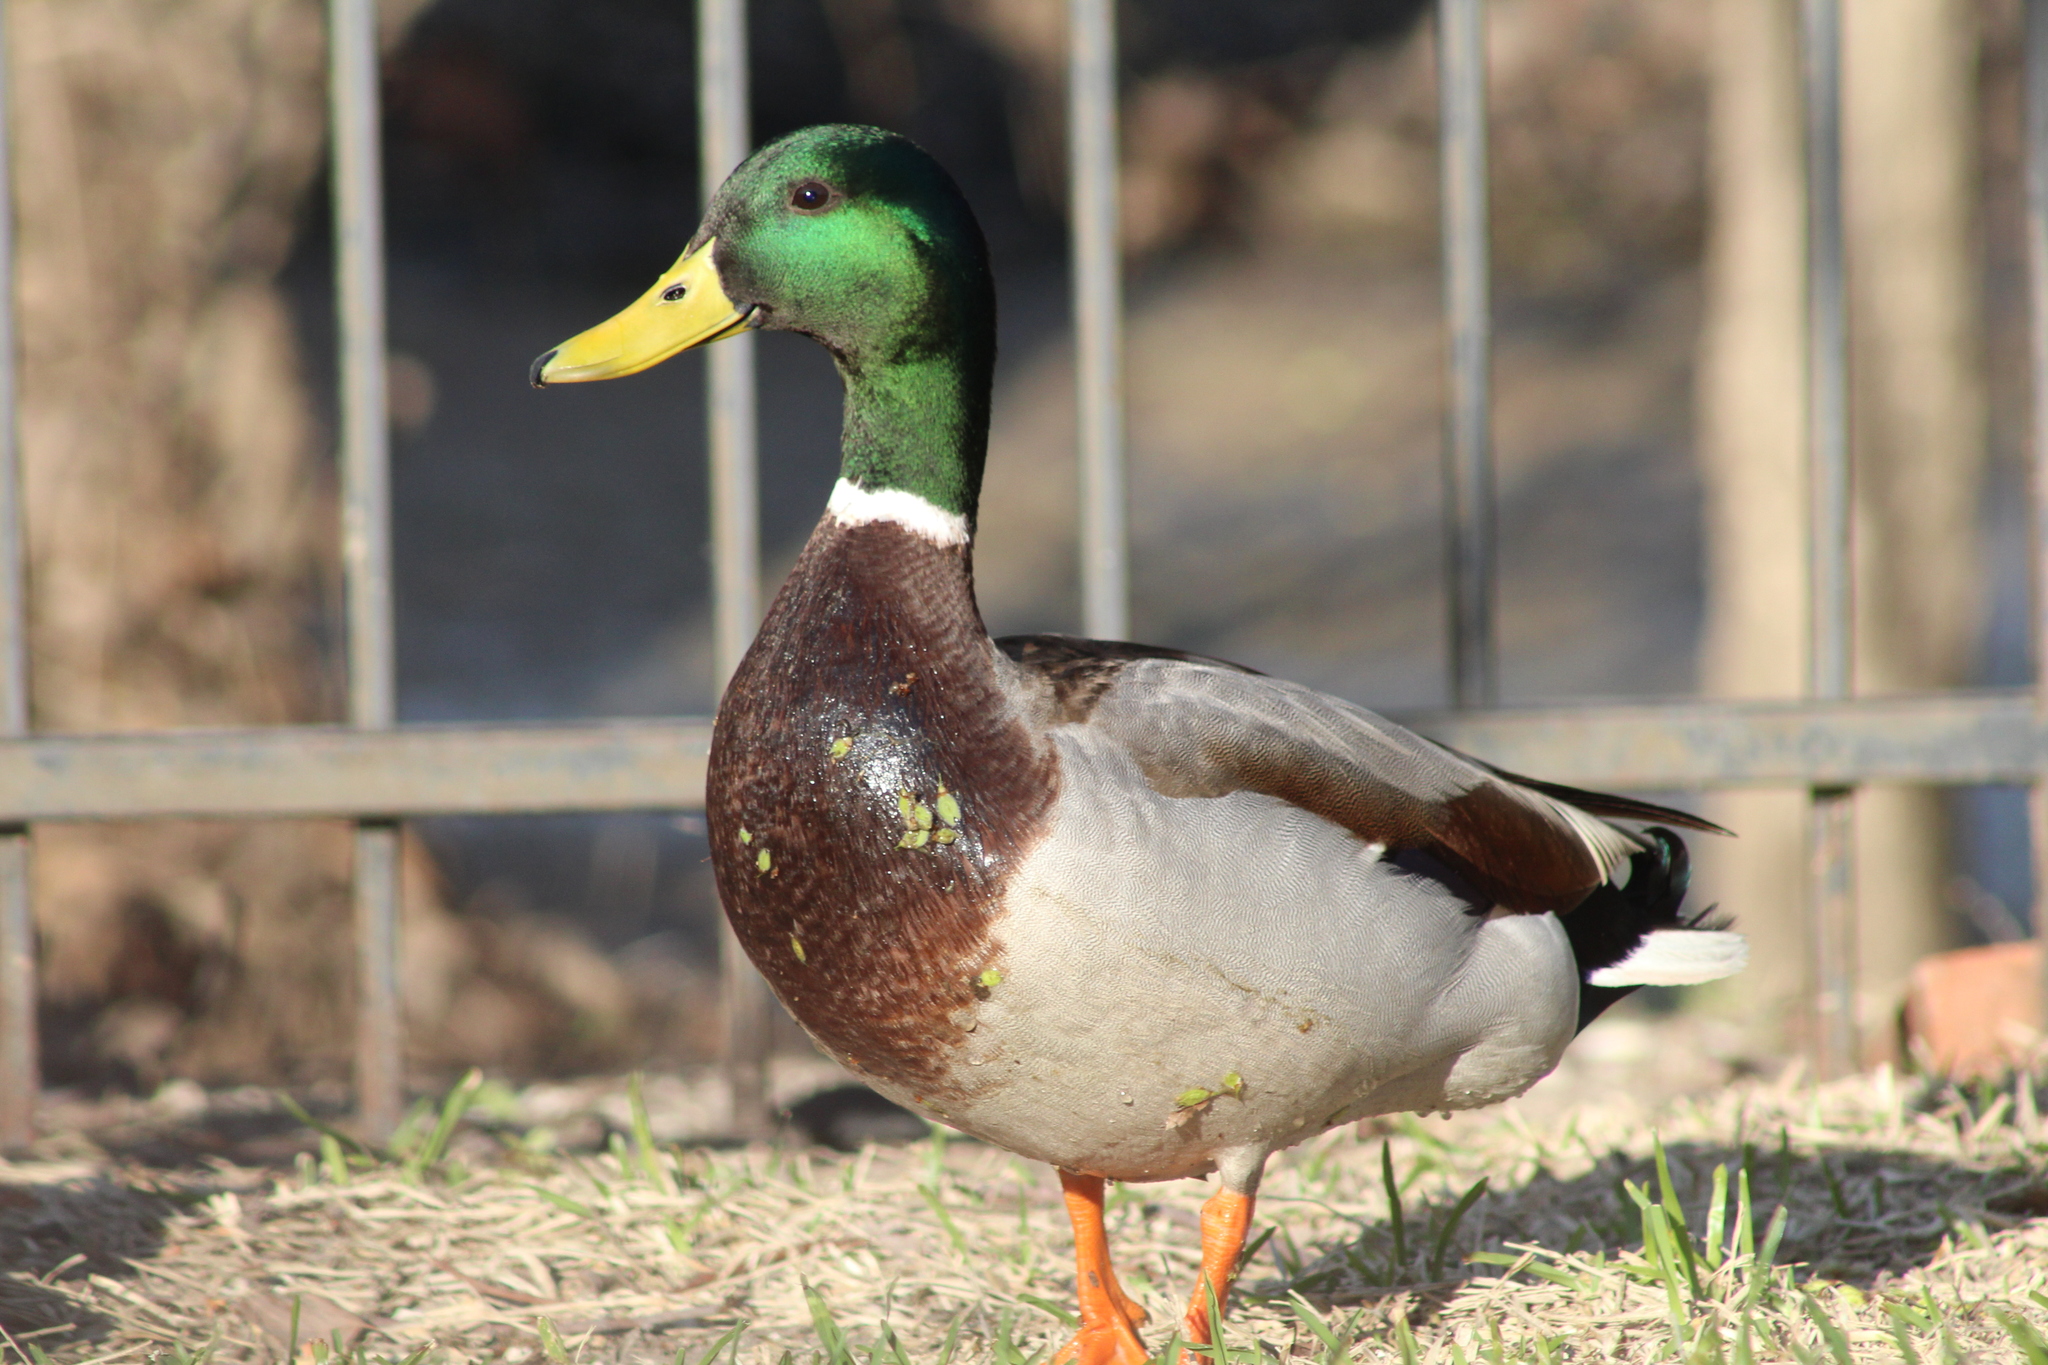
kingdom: Animalia
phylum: Chordata
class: Aves
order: Anseriformes
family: Anatidae
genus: Anas
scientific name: Anas platyrhynchos
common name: Mallard
